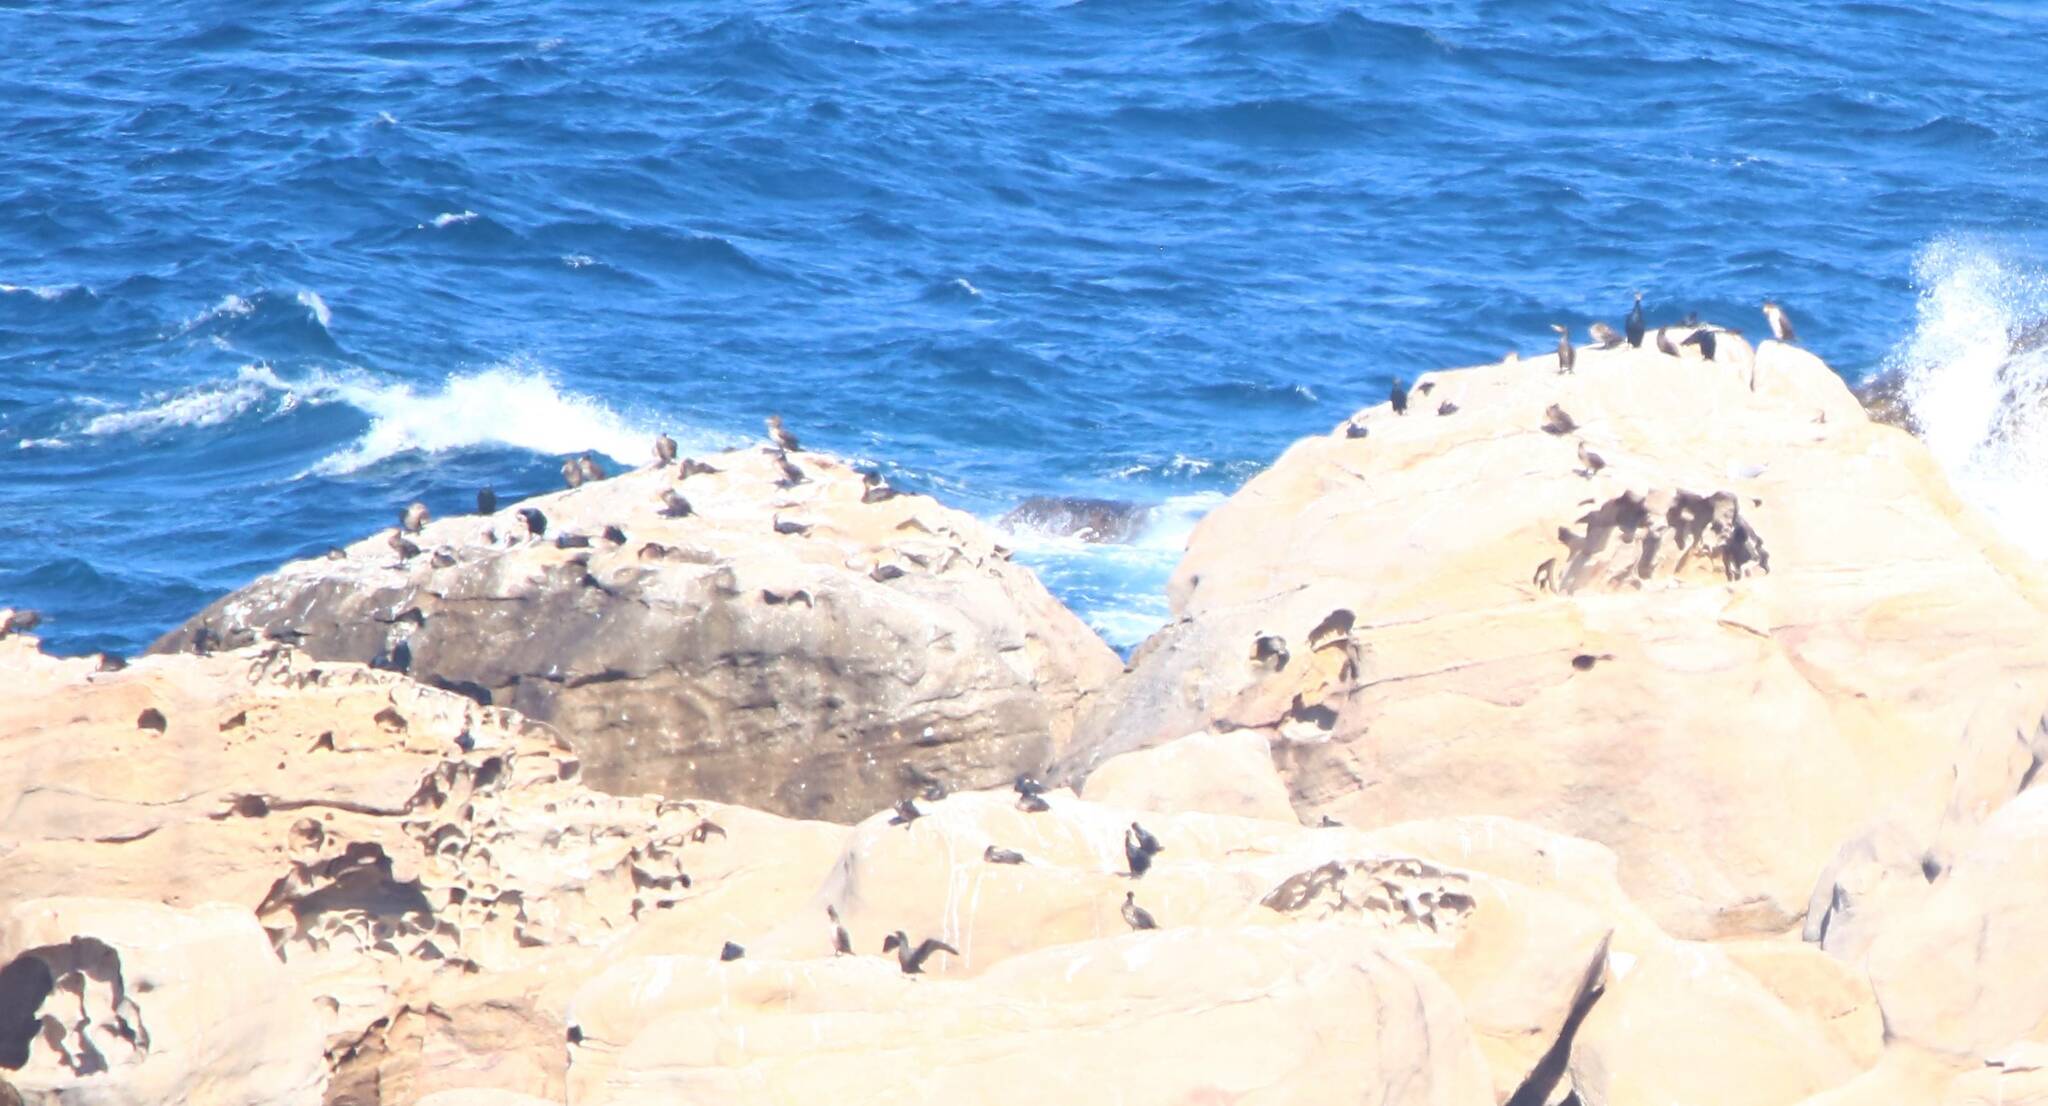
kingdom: Animalia
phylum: Chordata
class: Aves
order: Suliformes
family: Phalacrocoracidae
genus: Phalacrocorax
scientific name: Phalacrocorax carbo
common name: Great cormorant
